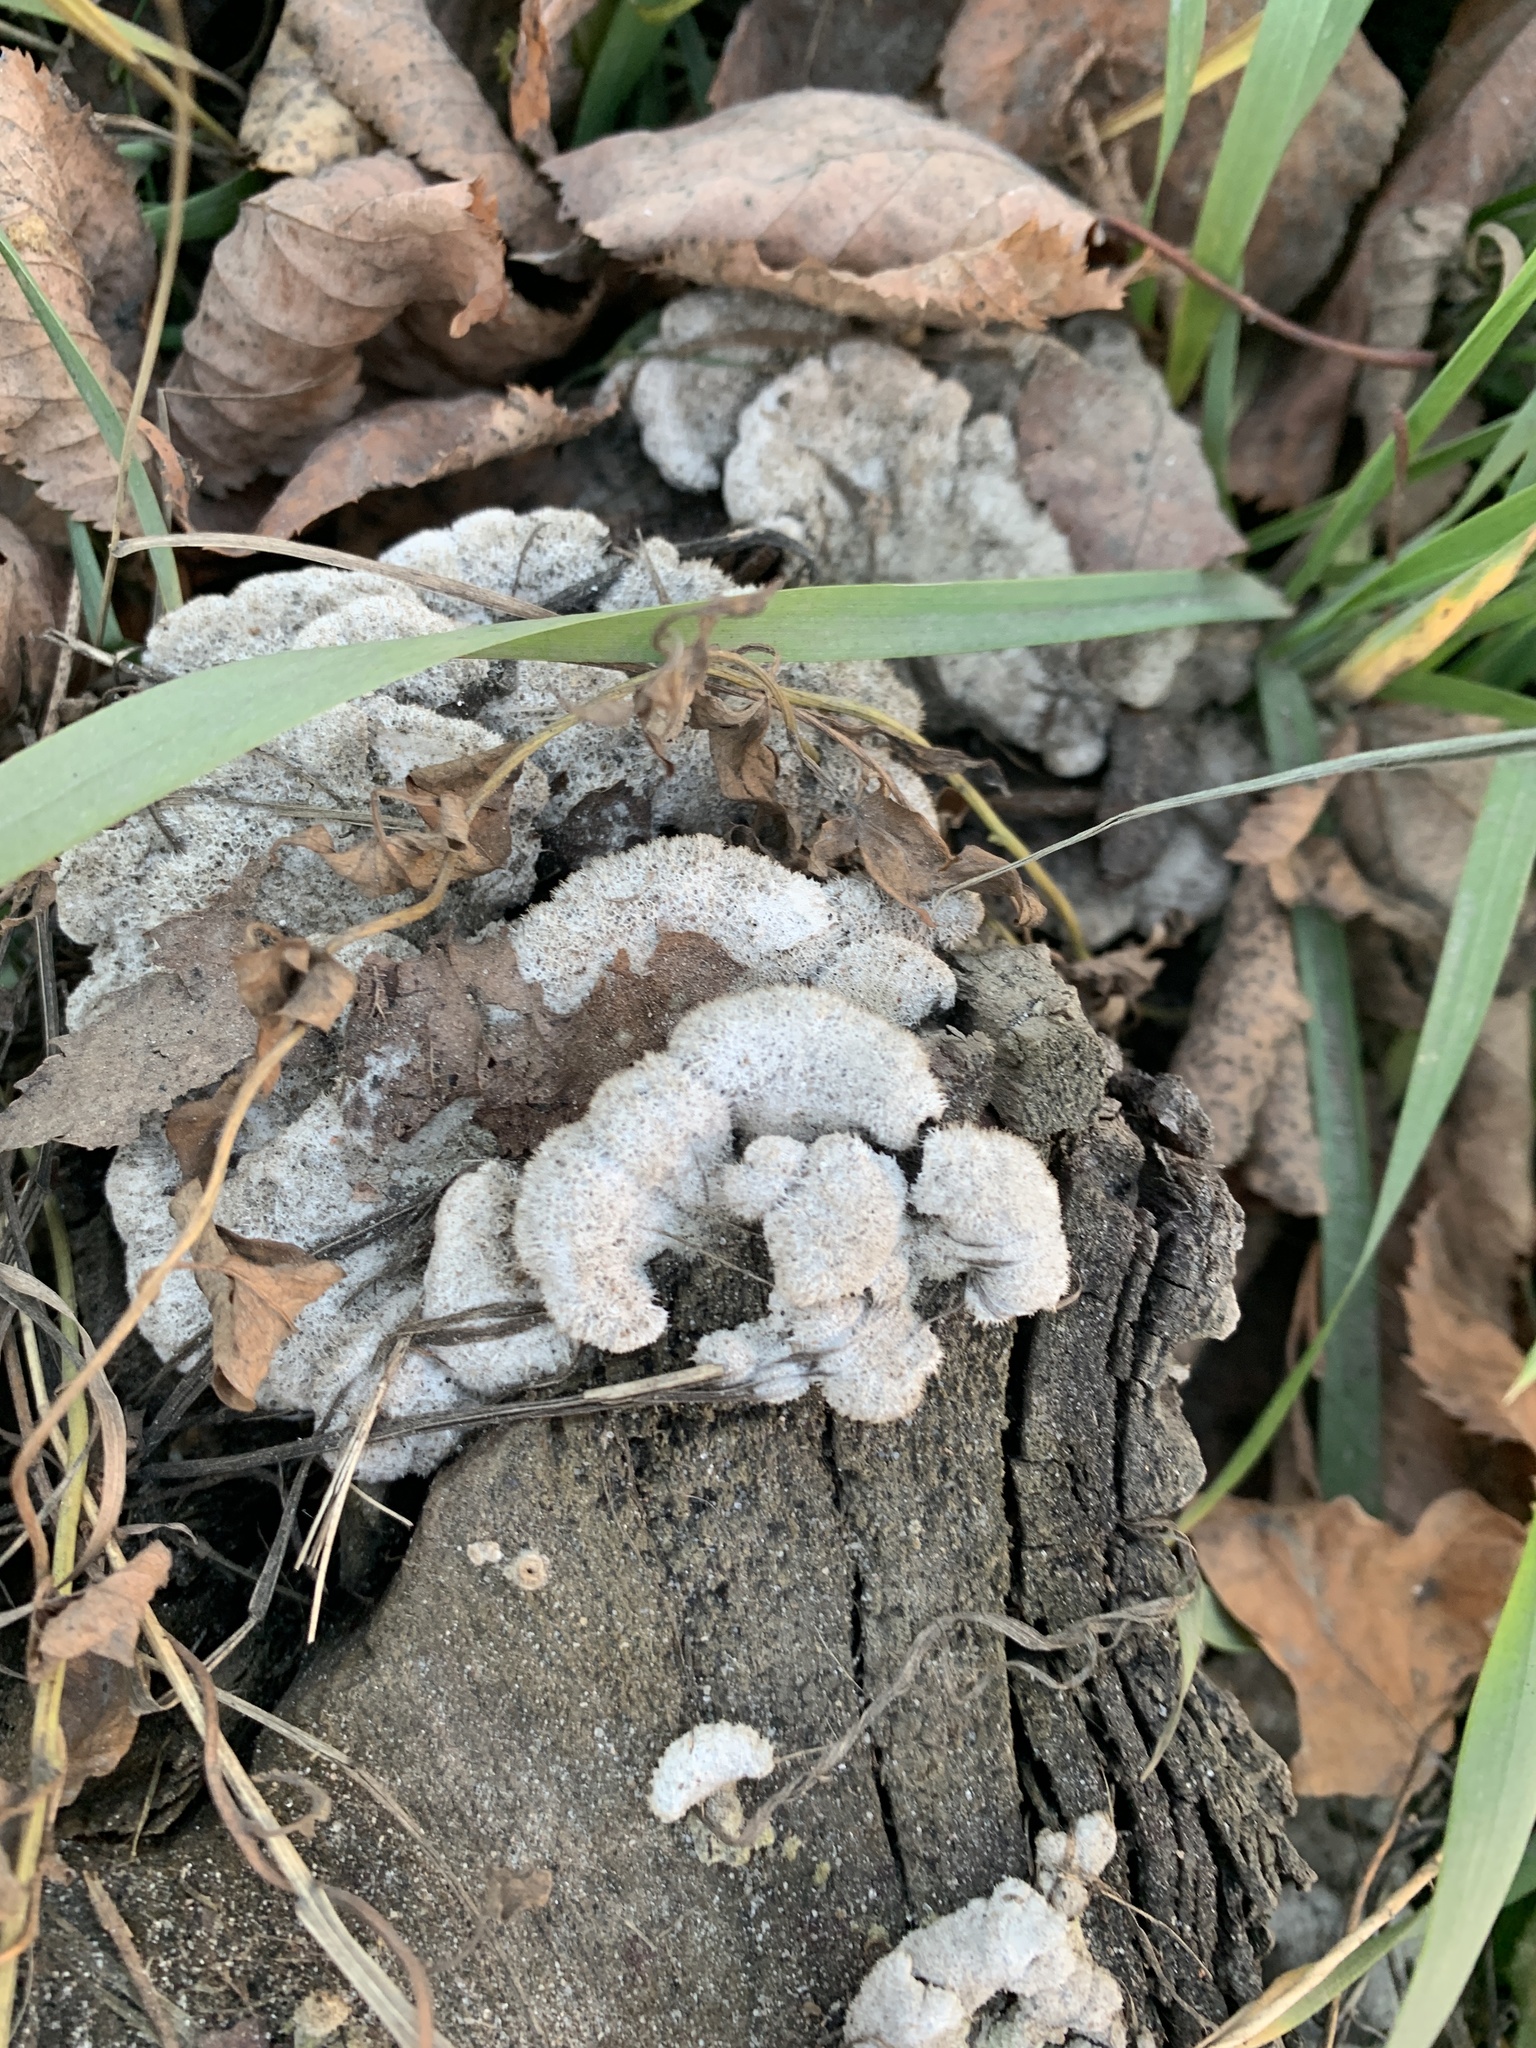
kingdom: Fungi
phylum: Basidiomycota
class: Agaricomycetes
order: Agaricales
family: Schizophyllaceae
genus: Schizophyllum
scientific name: Schizophyllum commune
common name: Common porecrust
